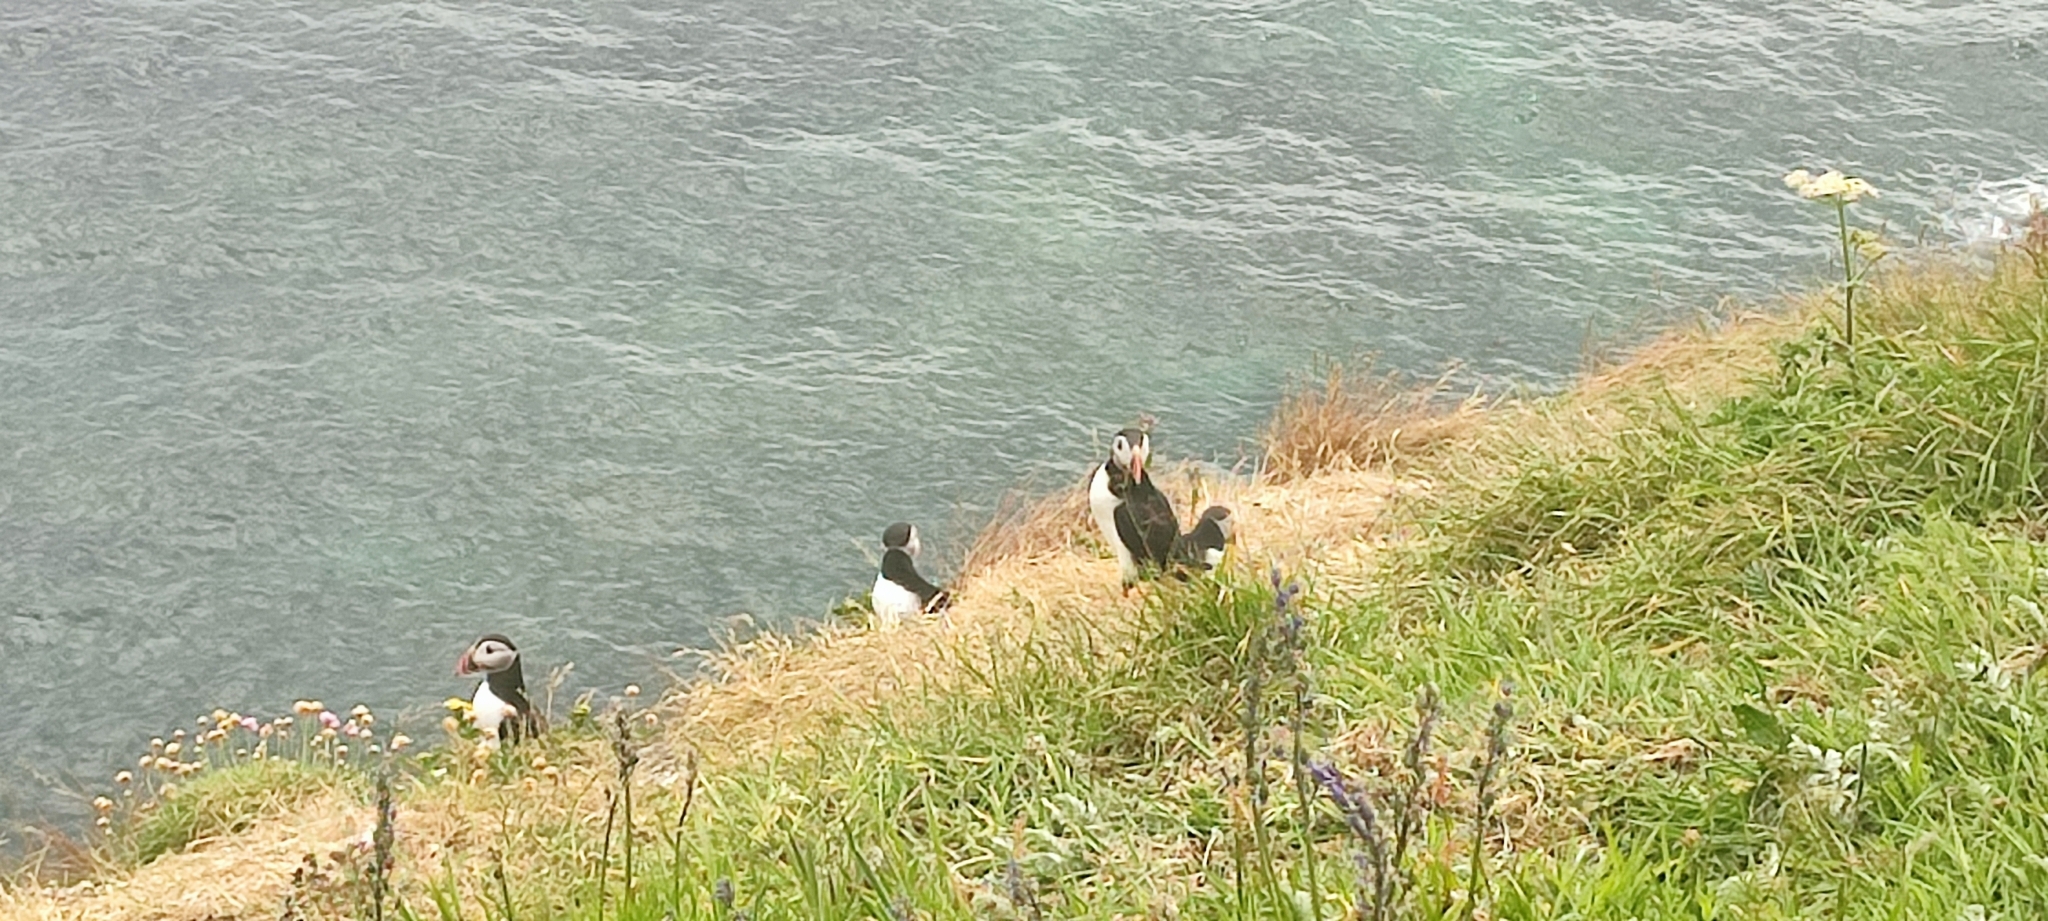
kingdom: Animalia
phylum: Chordata
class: Aves
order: Charadriiformes
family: Alcidae
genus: Fratercula
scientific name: Fratercula arctica
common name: Atlantic puffin
